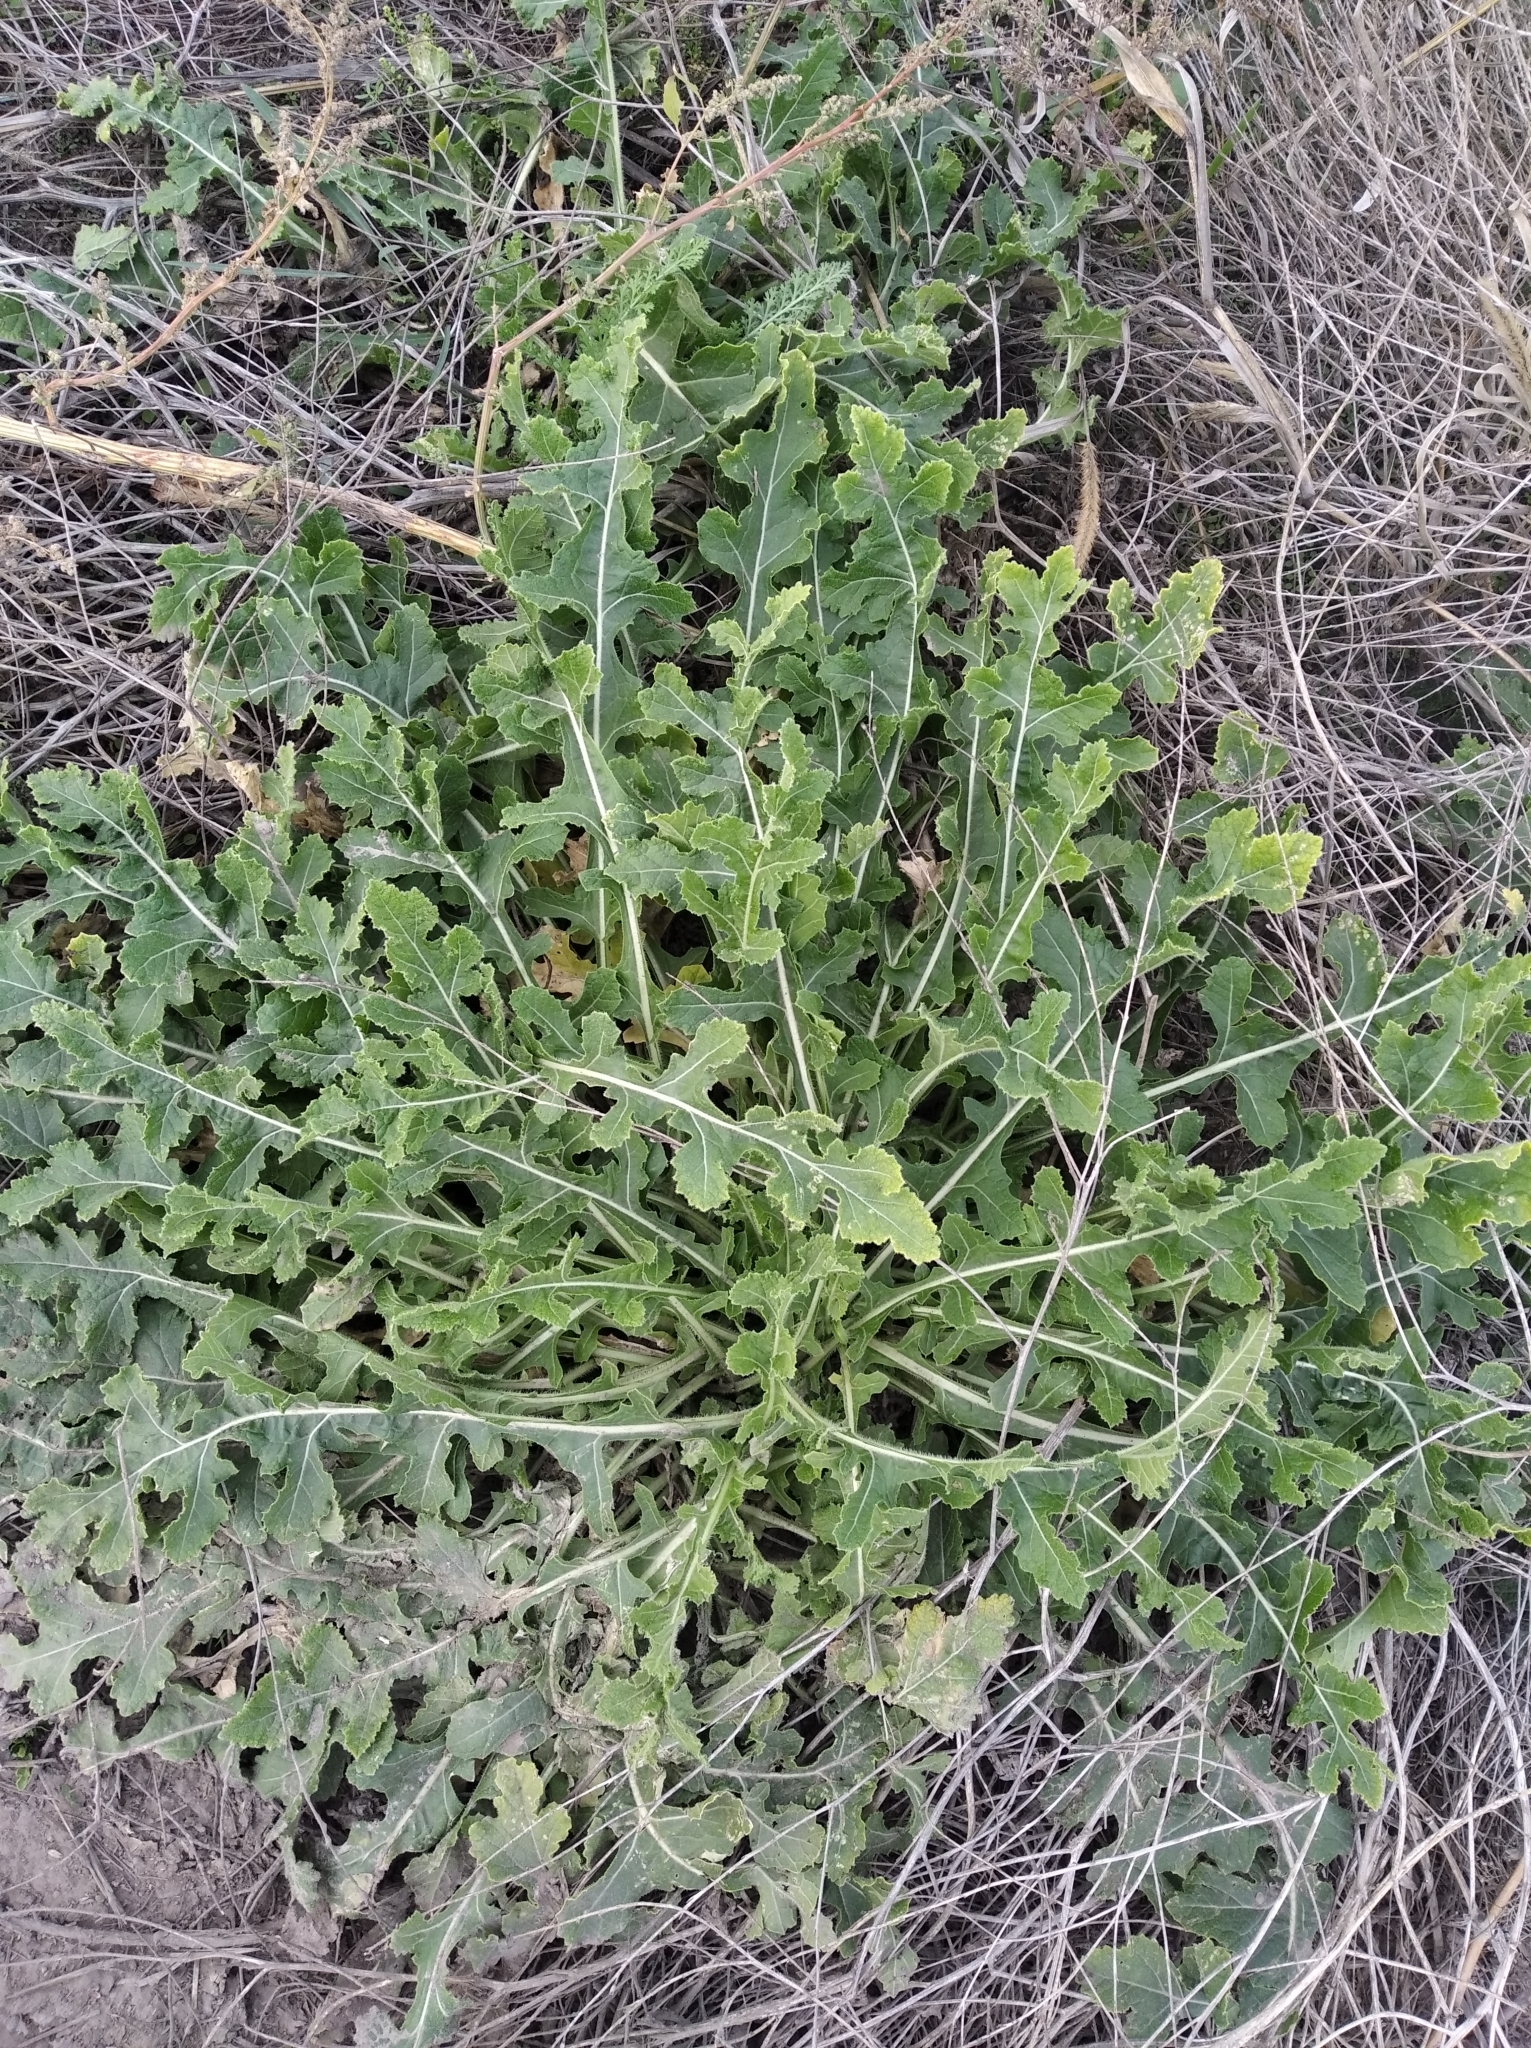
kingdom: Plantae
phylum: Tracheophyta
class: Magnoliopsida
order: Brassicales
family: Brassicaceae
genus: Rapistrum
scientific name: Rapistrum perenne
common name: Steppe cabbage
